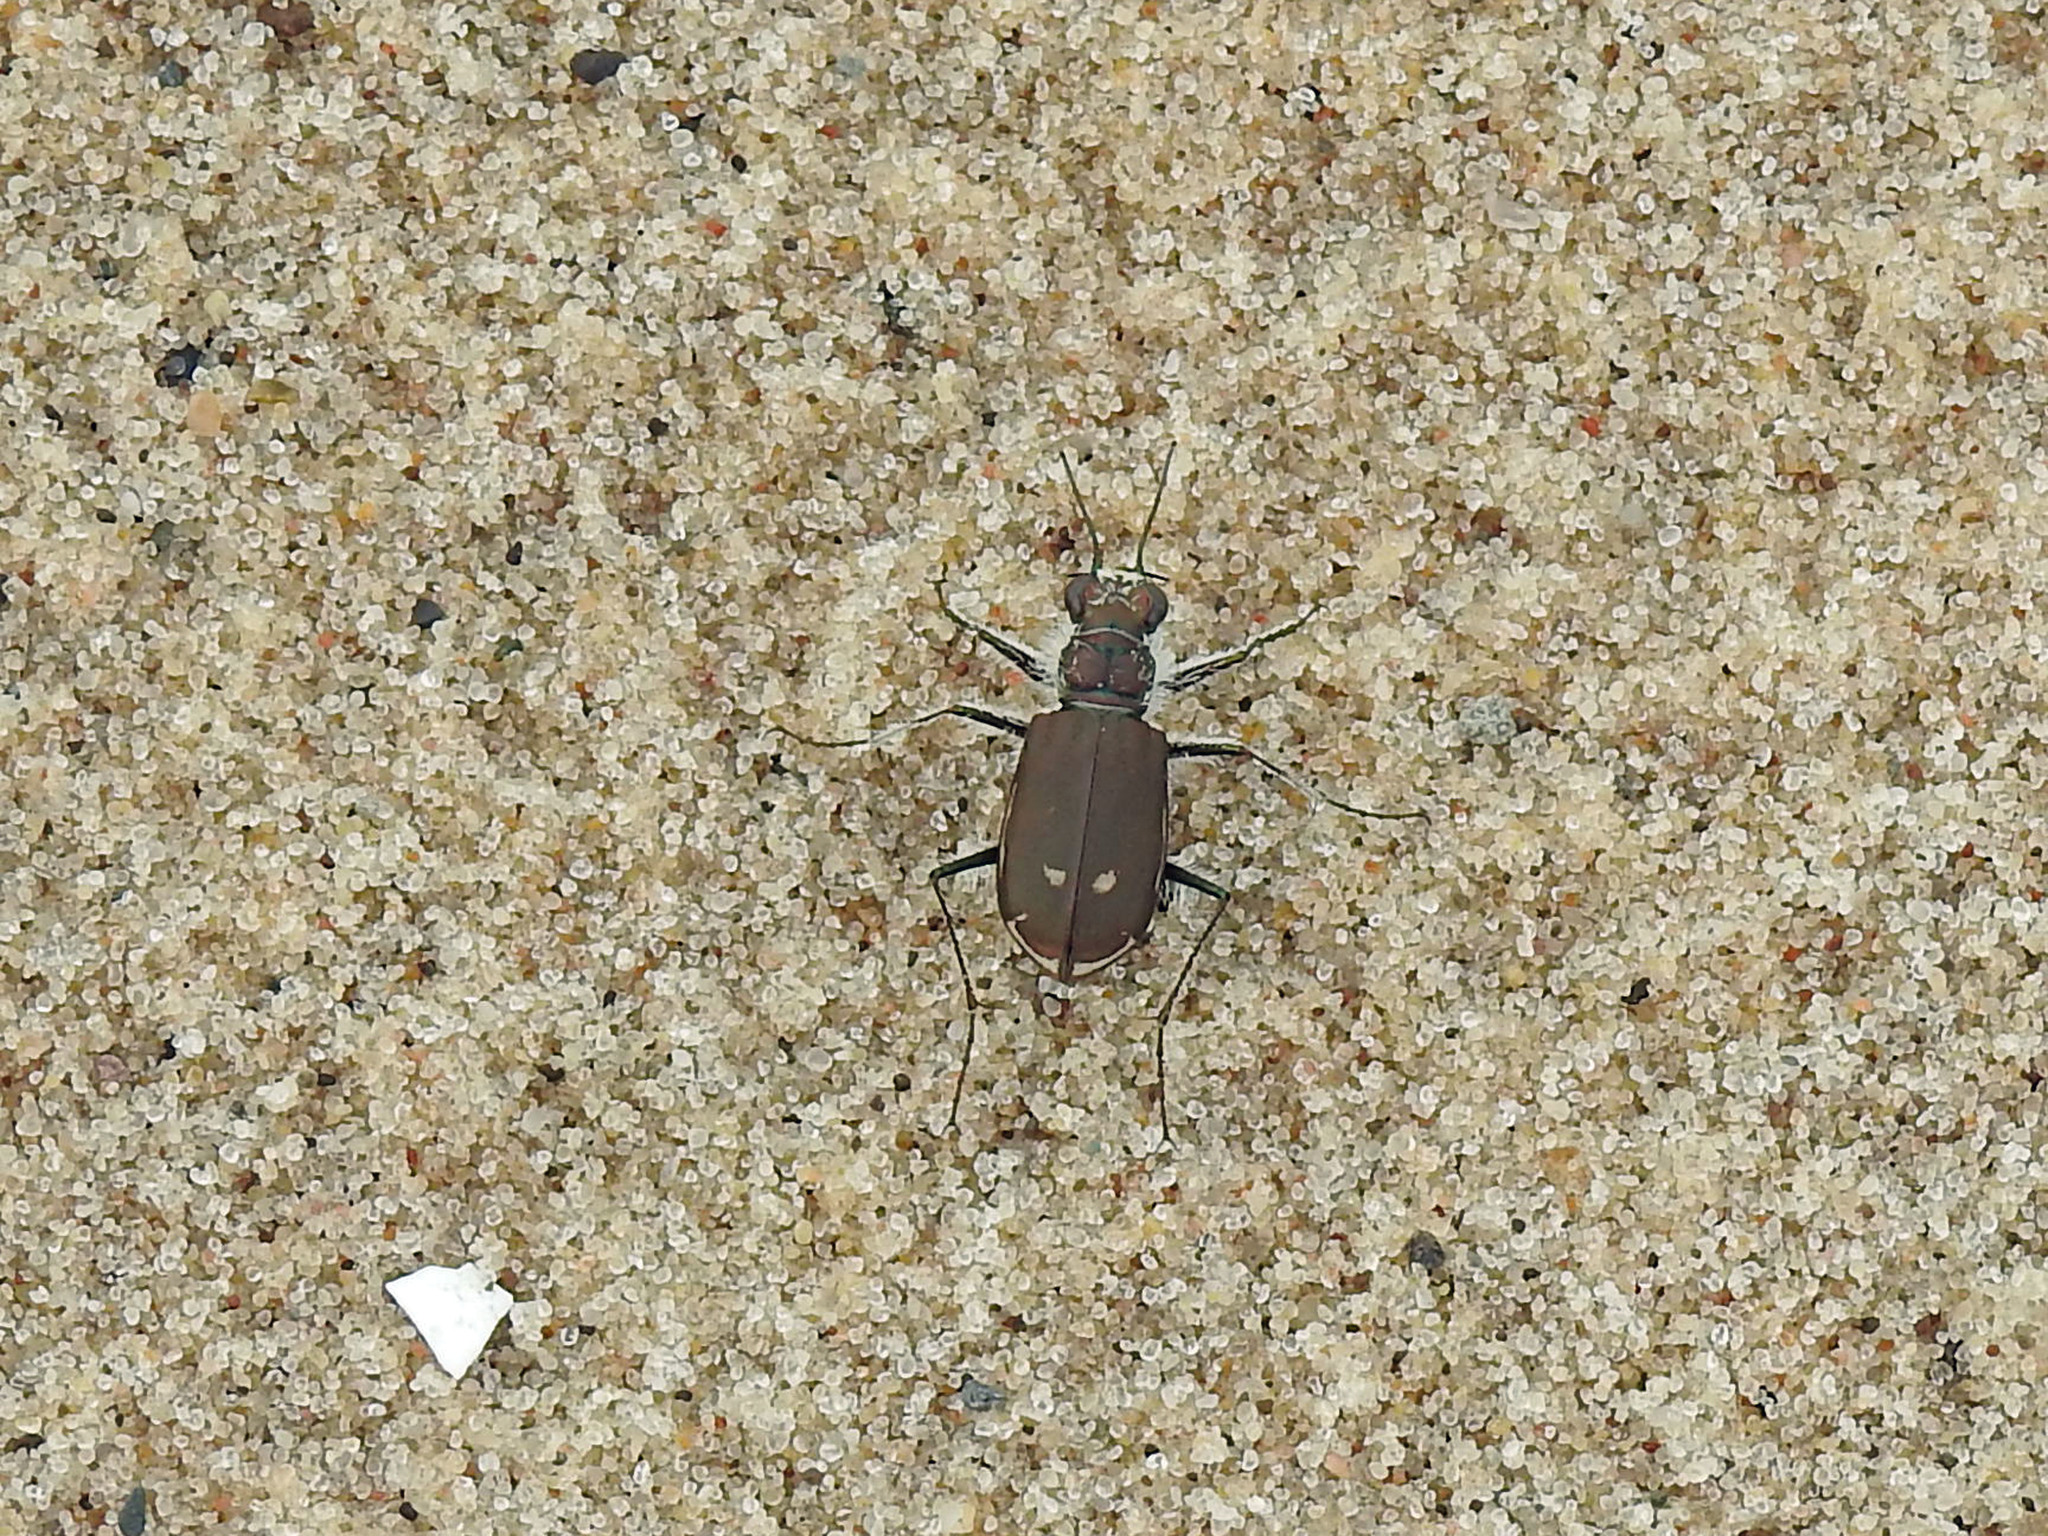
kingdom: Animalia
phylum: Arthropoda
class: Insecta
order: Coleoptera
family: Carabidae
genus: Cicindela
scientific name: Cicindela hirticollis
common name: Hairy-necked tiger beetle
